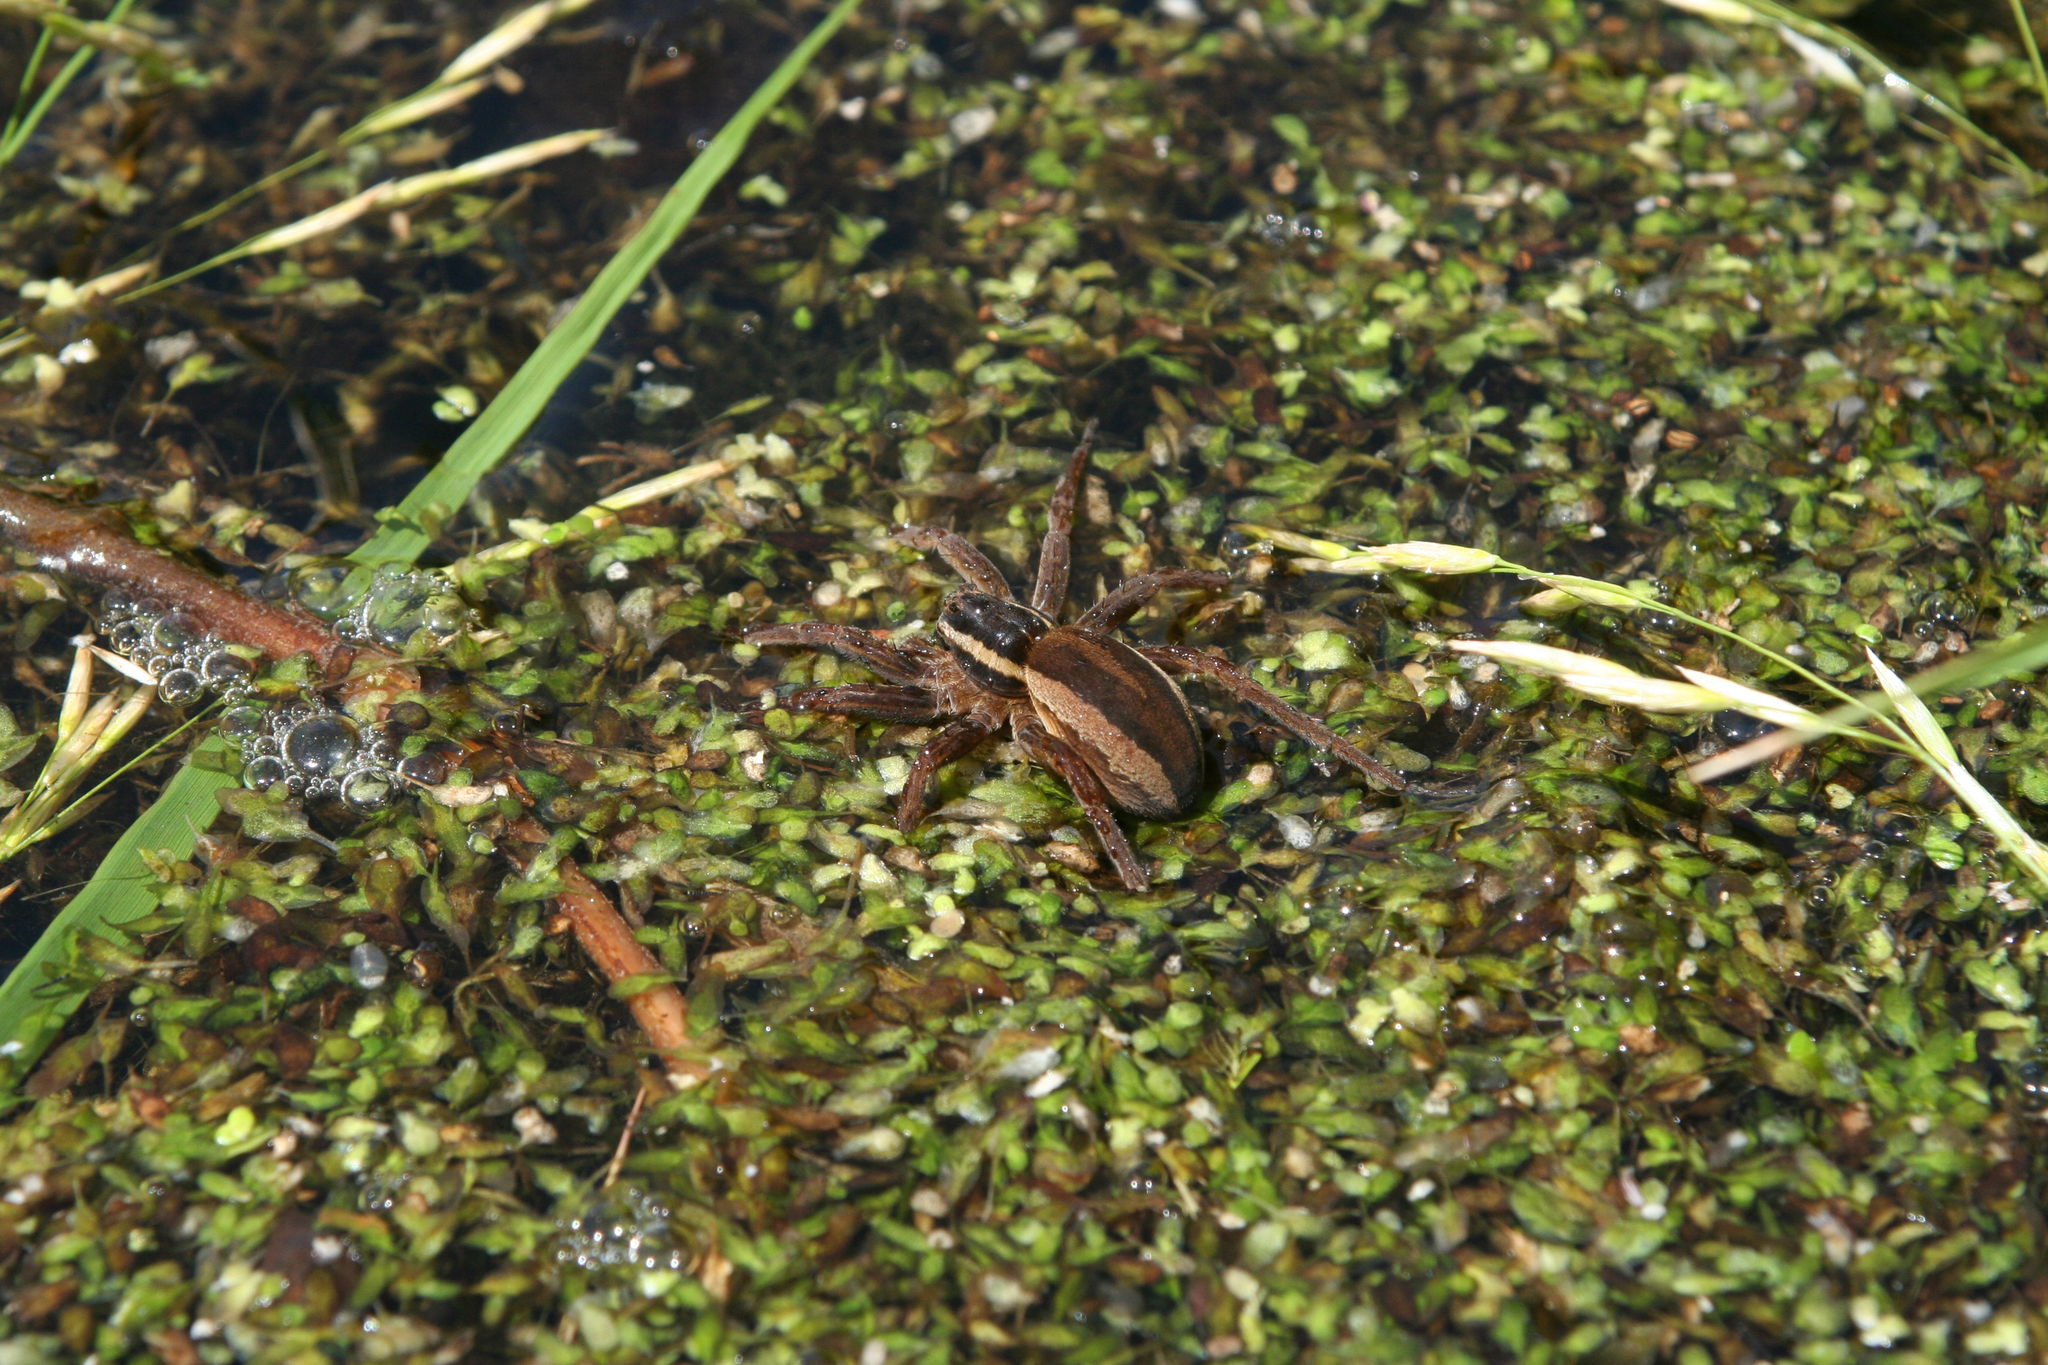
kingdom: Plantae
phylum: Tracheophyta
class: Liliopsida
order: Alismatales
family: Araceae
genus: Lemna
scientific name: Lemna trisulca
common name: Ivy-leaved duckweed
